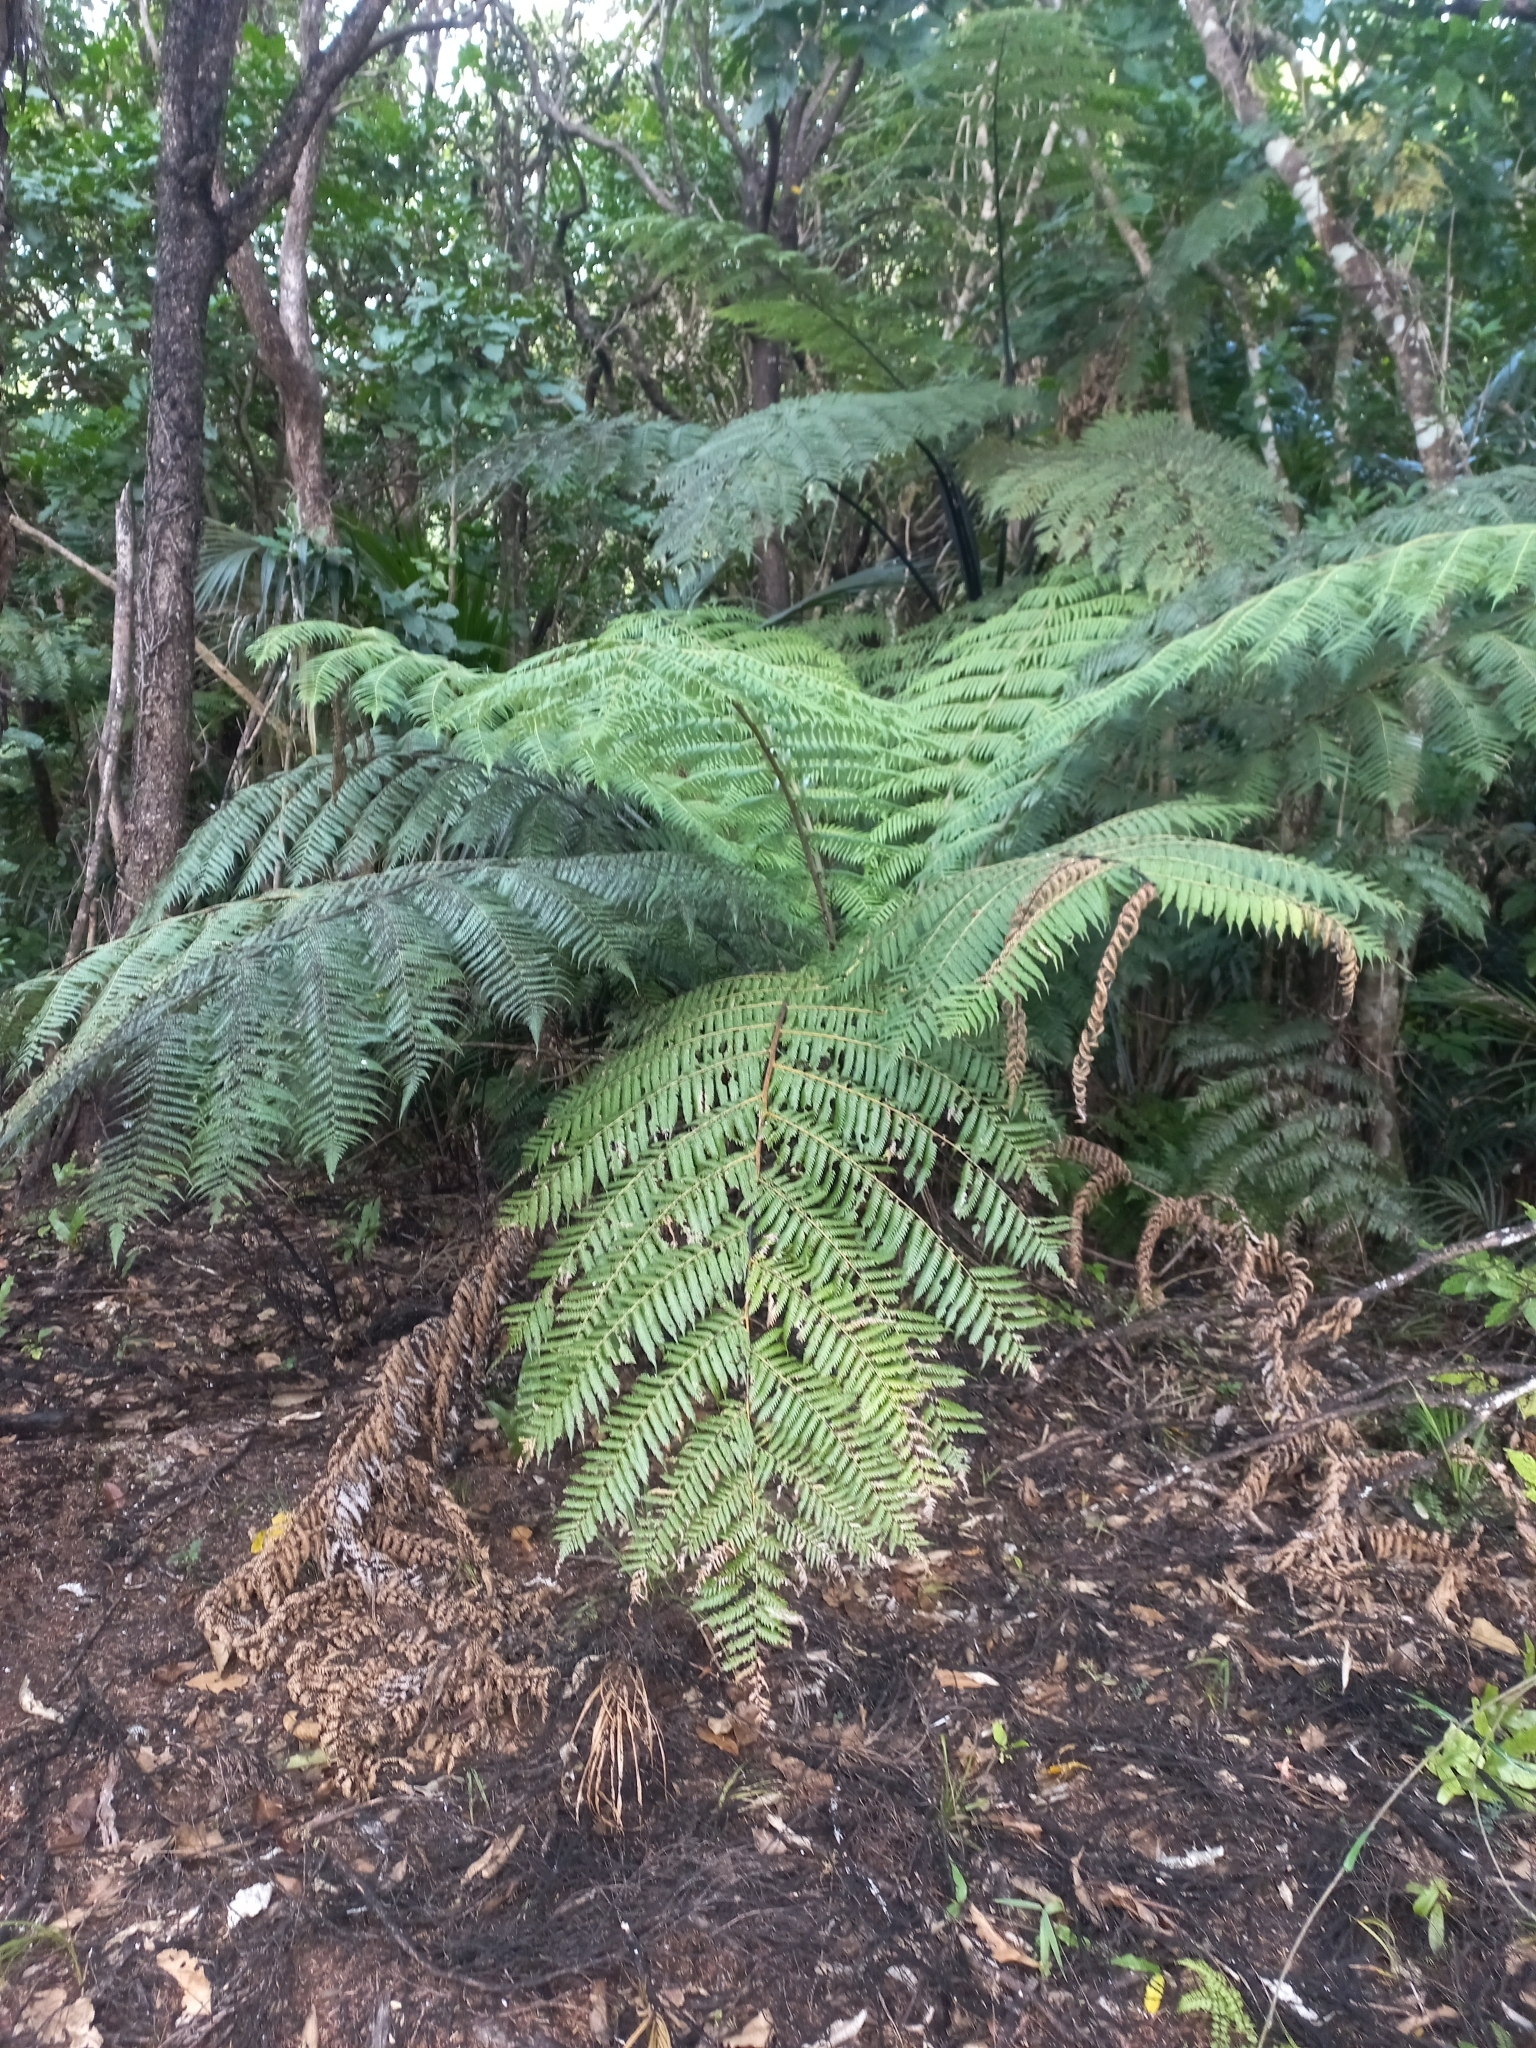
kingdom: Plantae
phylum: Tracheophyta
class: Polypodiopsida
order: Cyatheales
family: Cyatheaceae
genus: Alsophila
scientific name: Alsophila dealbata
